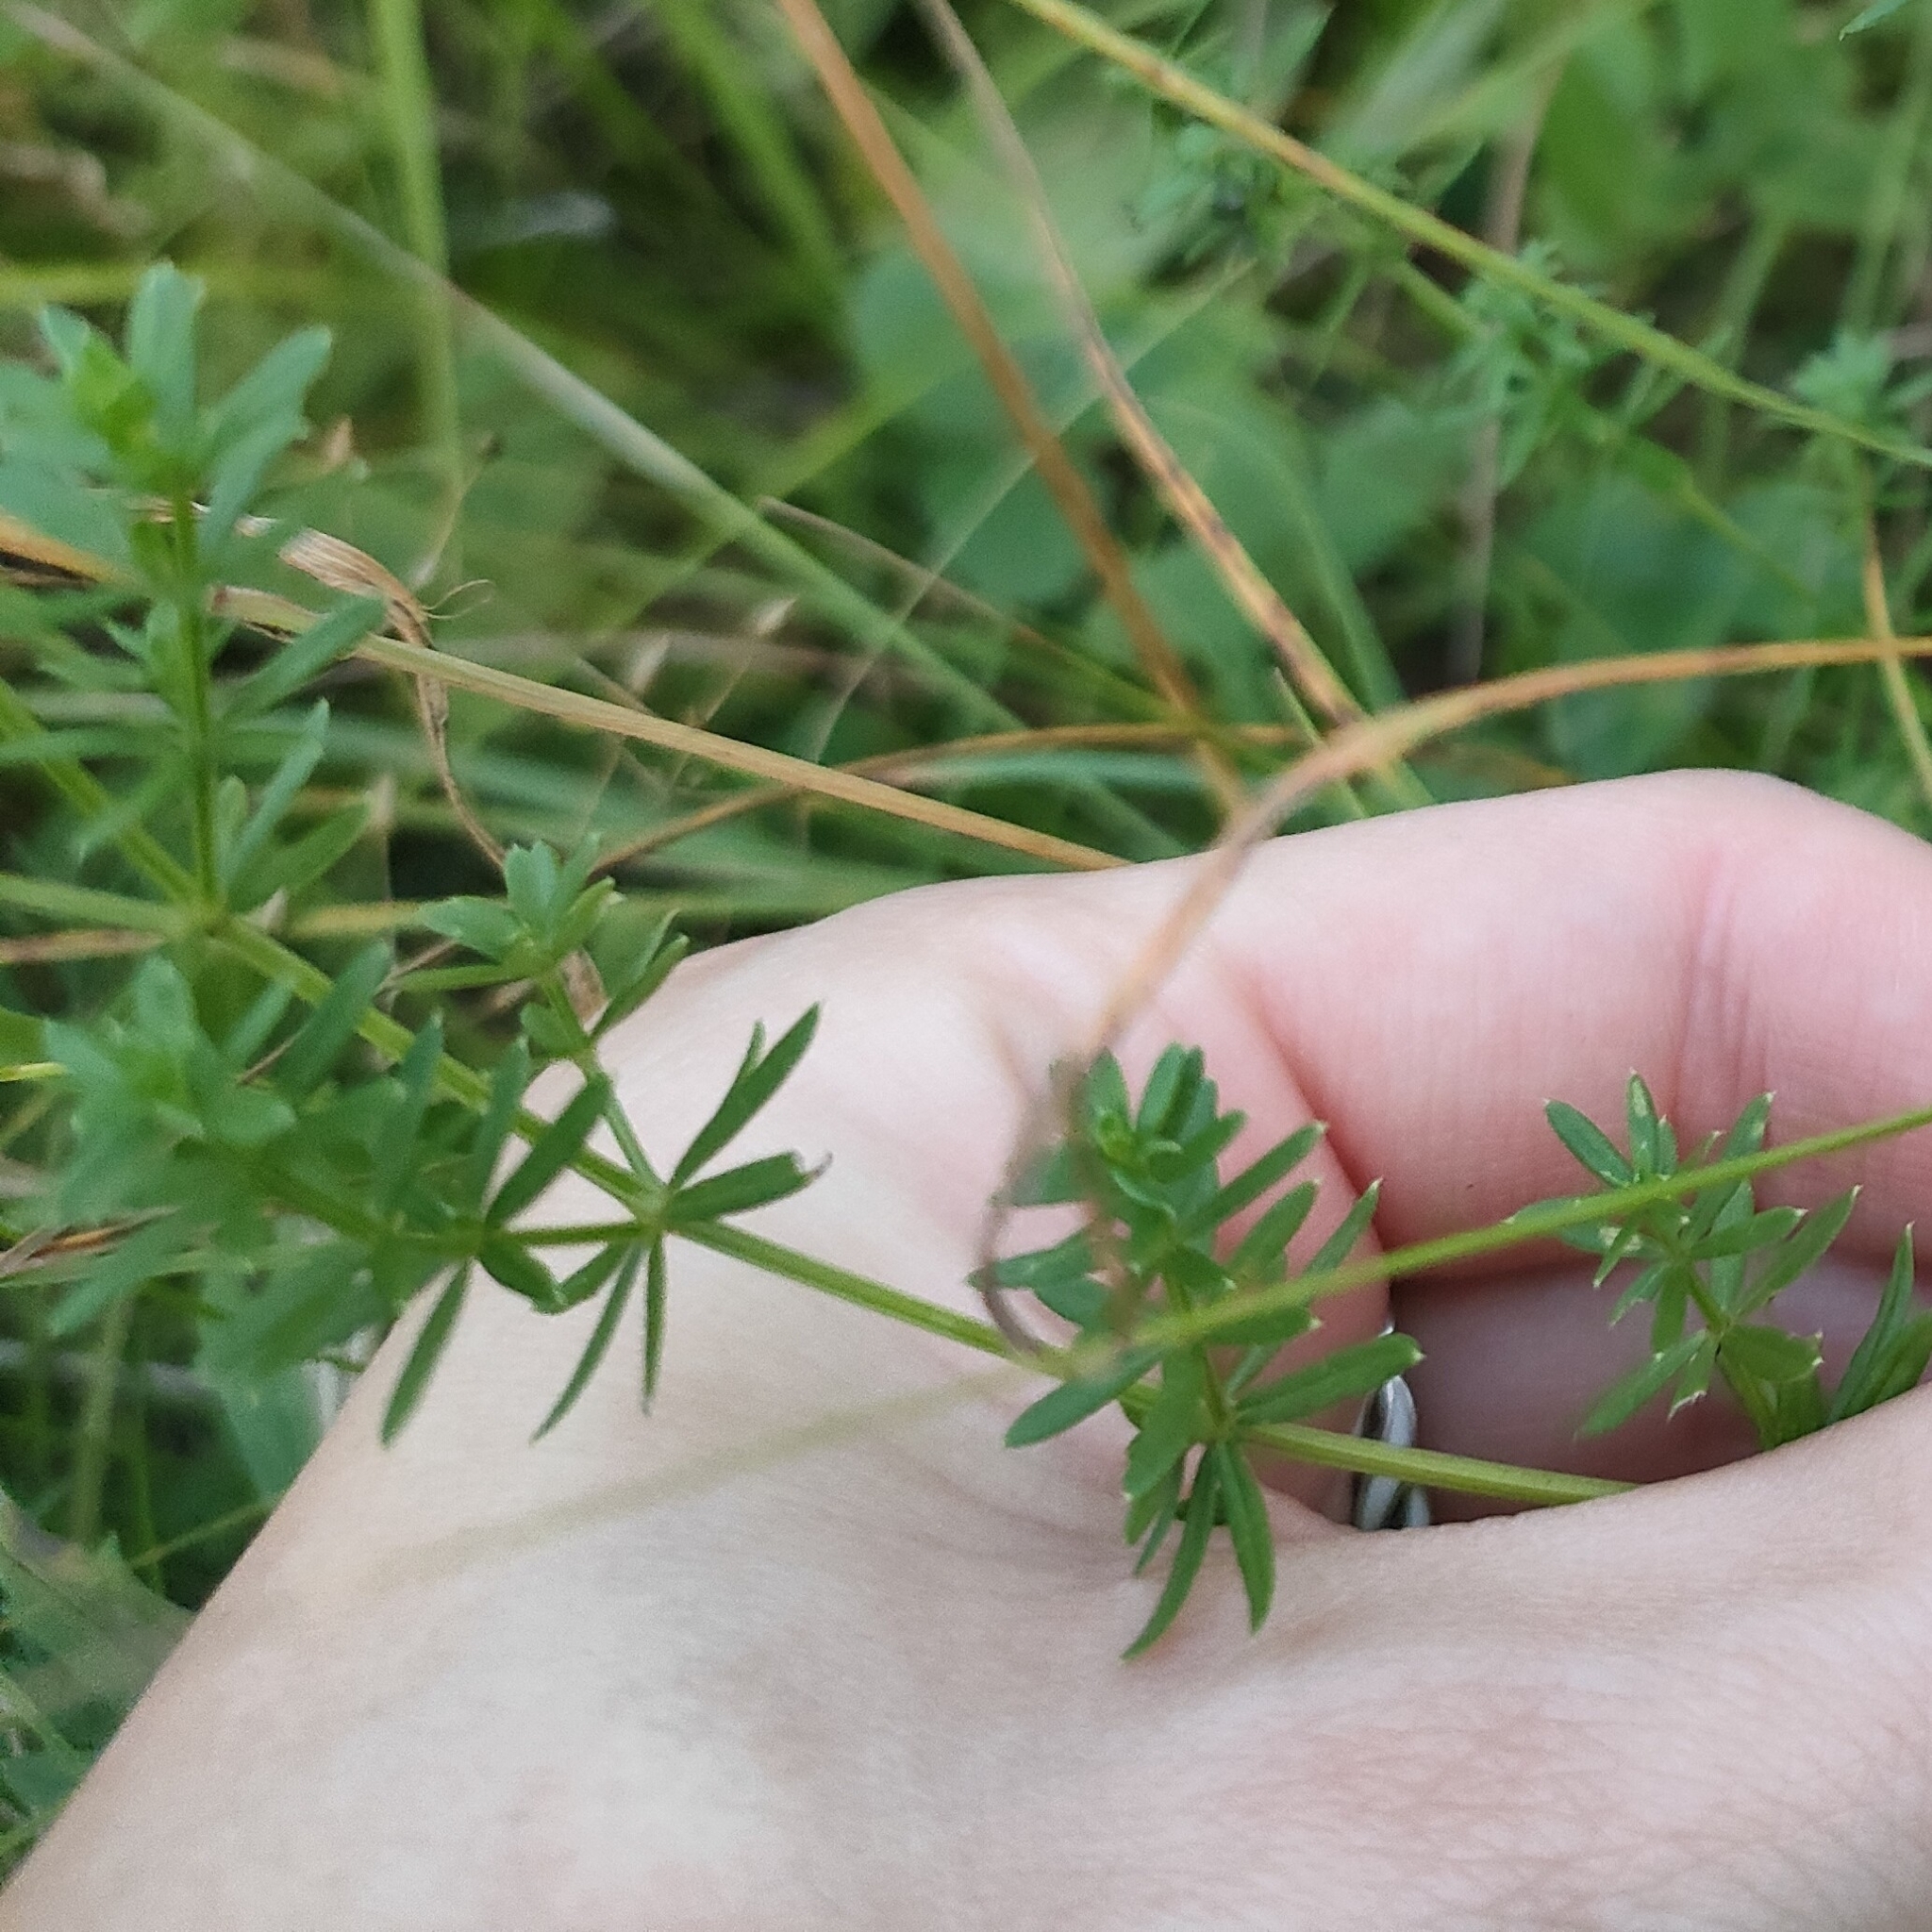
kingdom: Plantae
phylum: Tracheophyta
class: Magnoliopsida
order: Gentianales
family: Rubiaceae
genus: Galium
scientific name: Galium verum
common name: Lady's bedstraw
